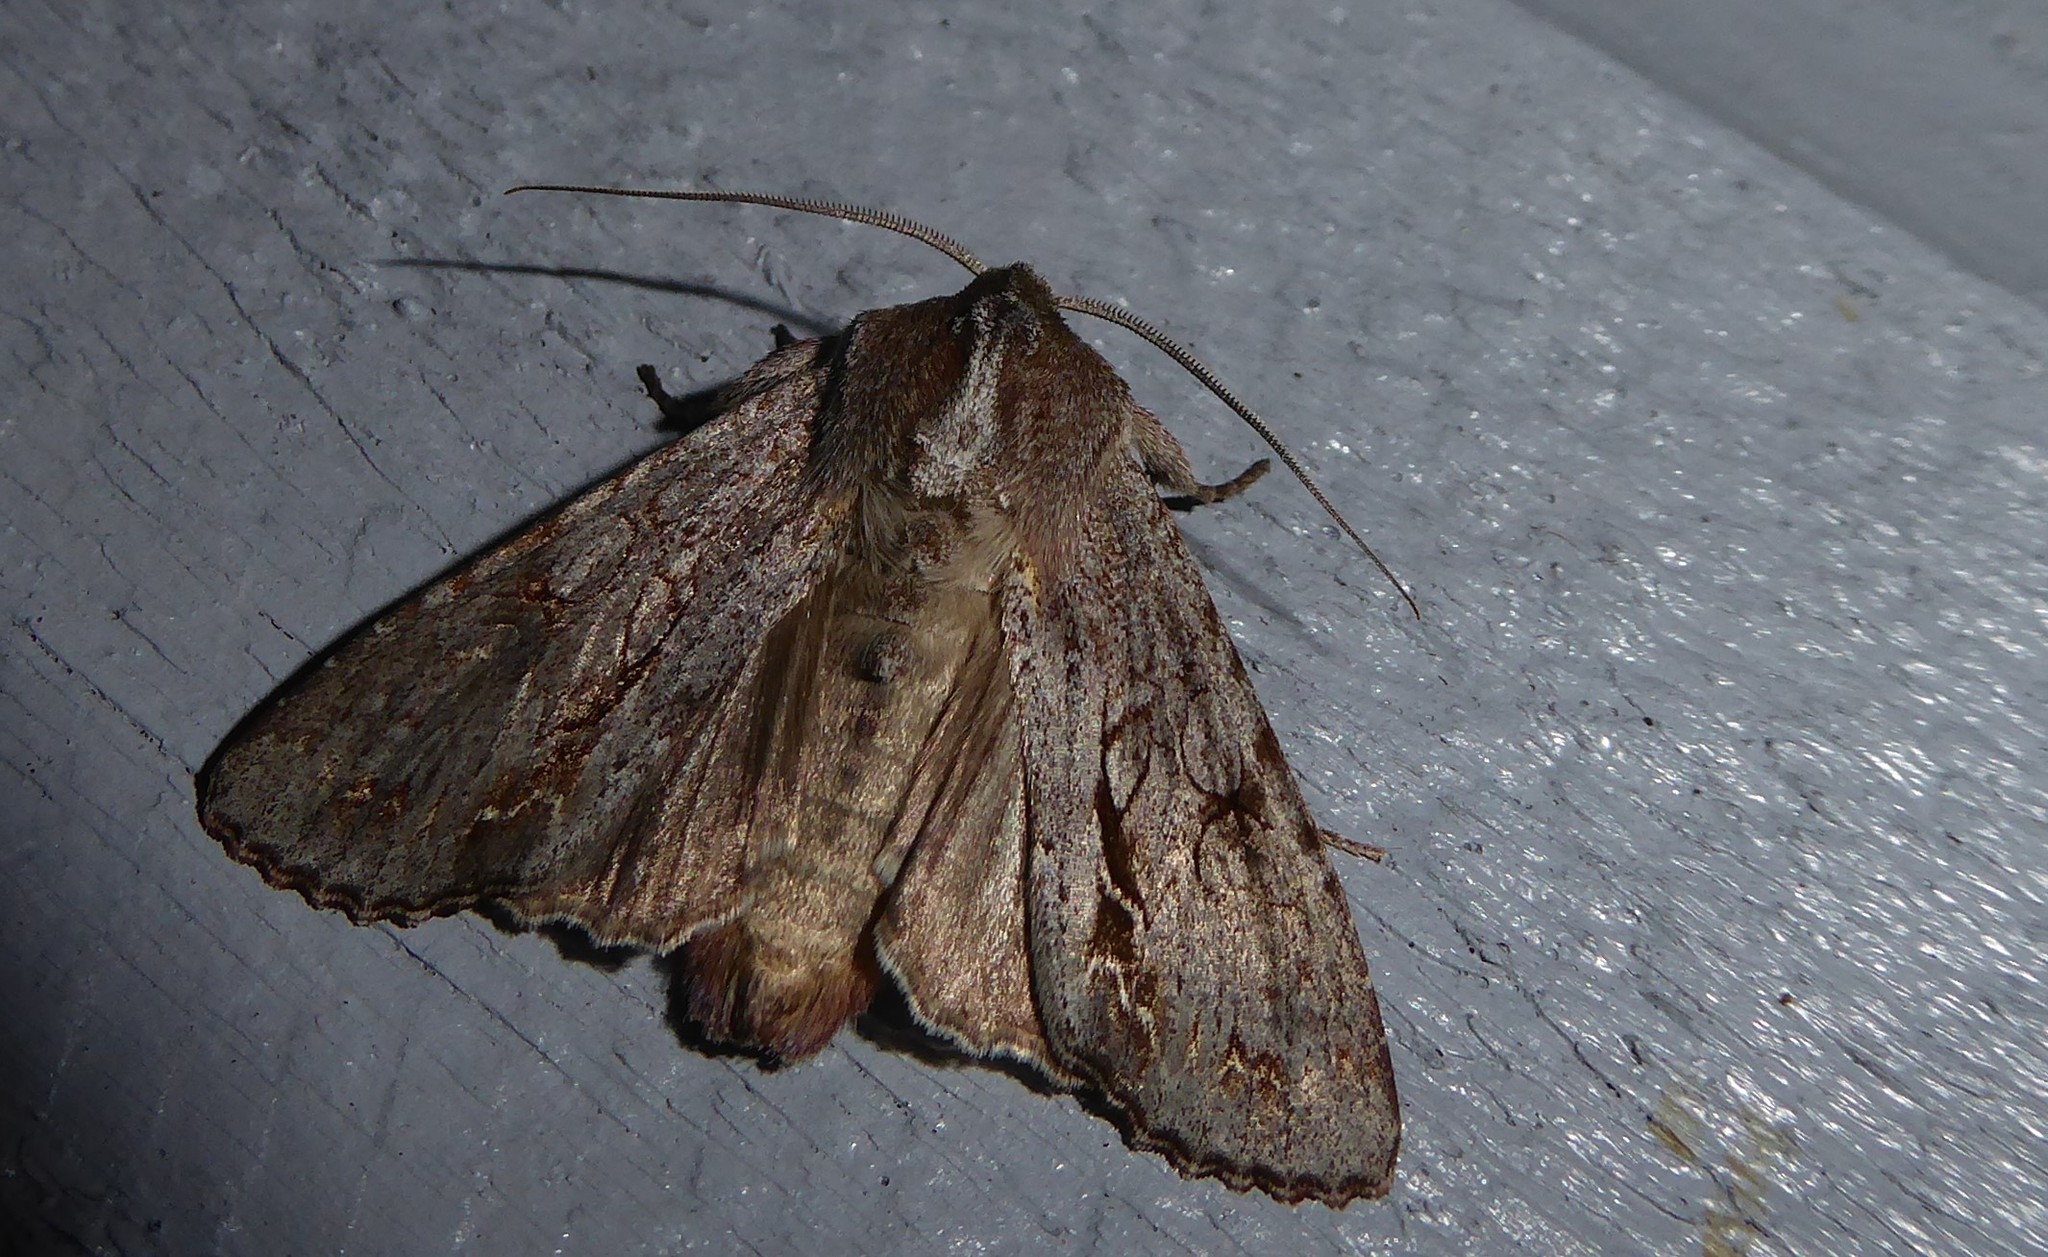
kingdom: Animalia
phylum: Arthropoda
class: Insecta
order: Lepidoptera
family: Noctuidae
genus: Ichneutica
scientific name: Ichneutica
